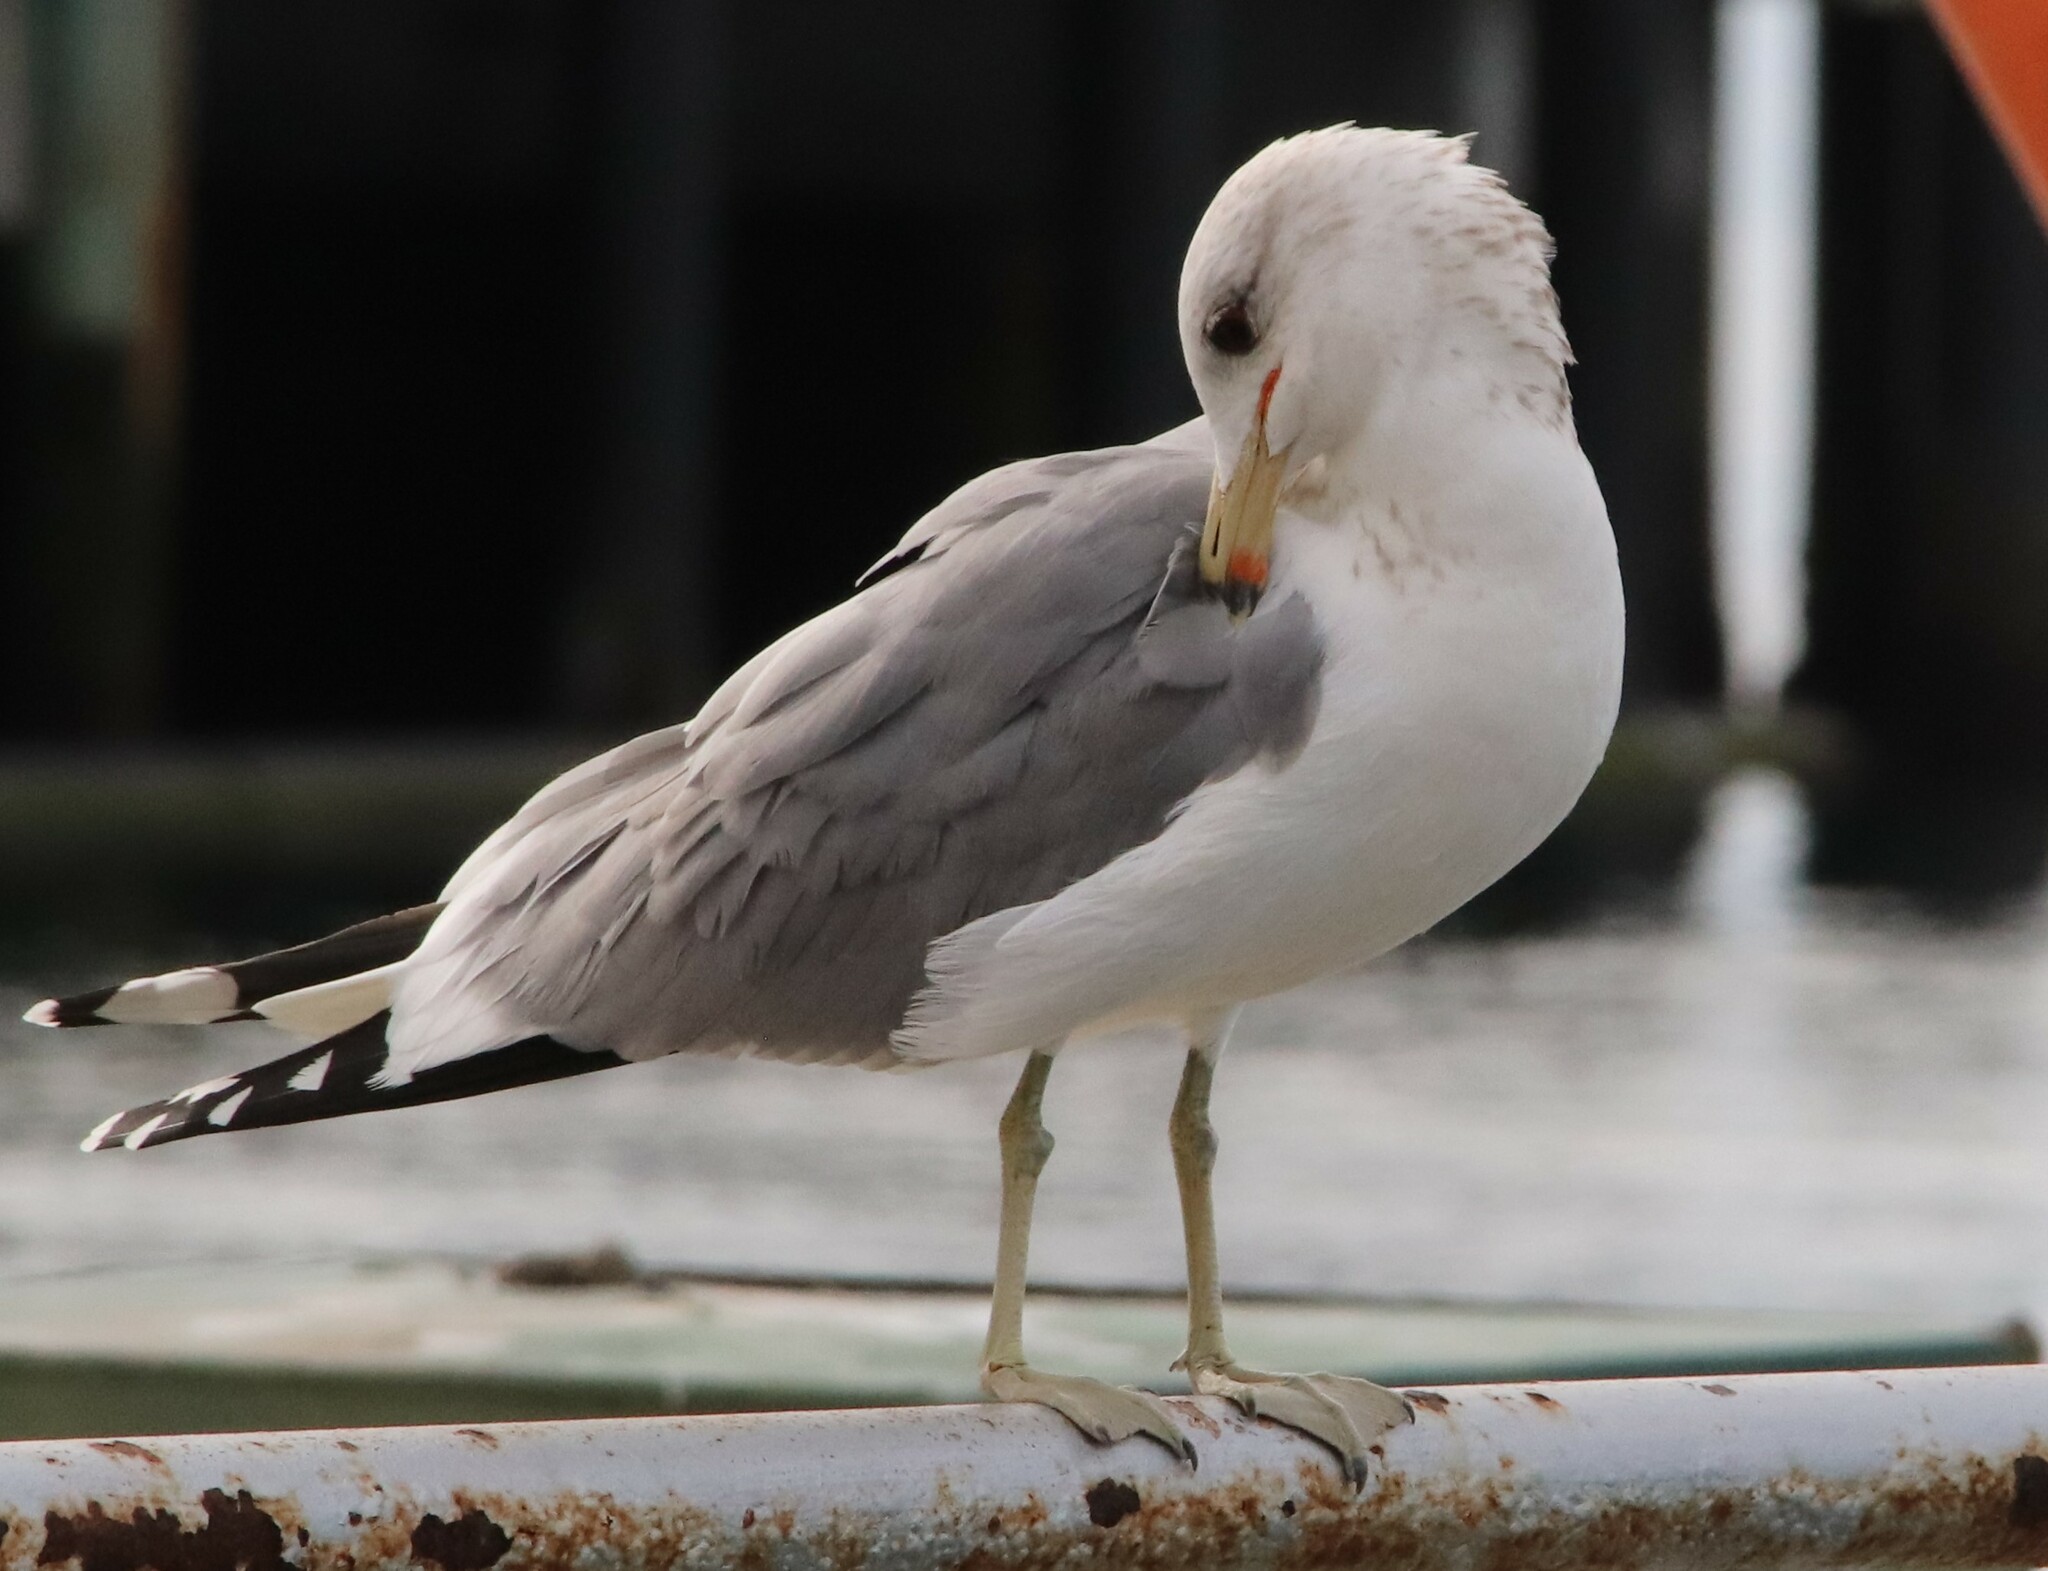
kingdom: Animalia
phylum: Chordata
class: Aves
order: Charadriiformes
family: Laridae
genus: Larus
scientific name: Larus californicus
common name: California gull
